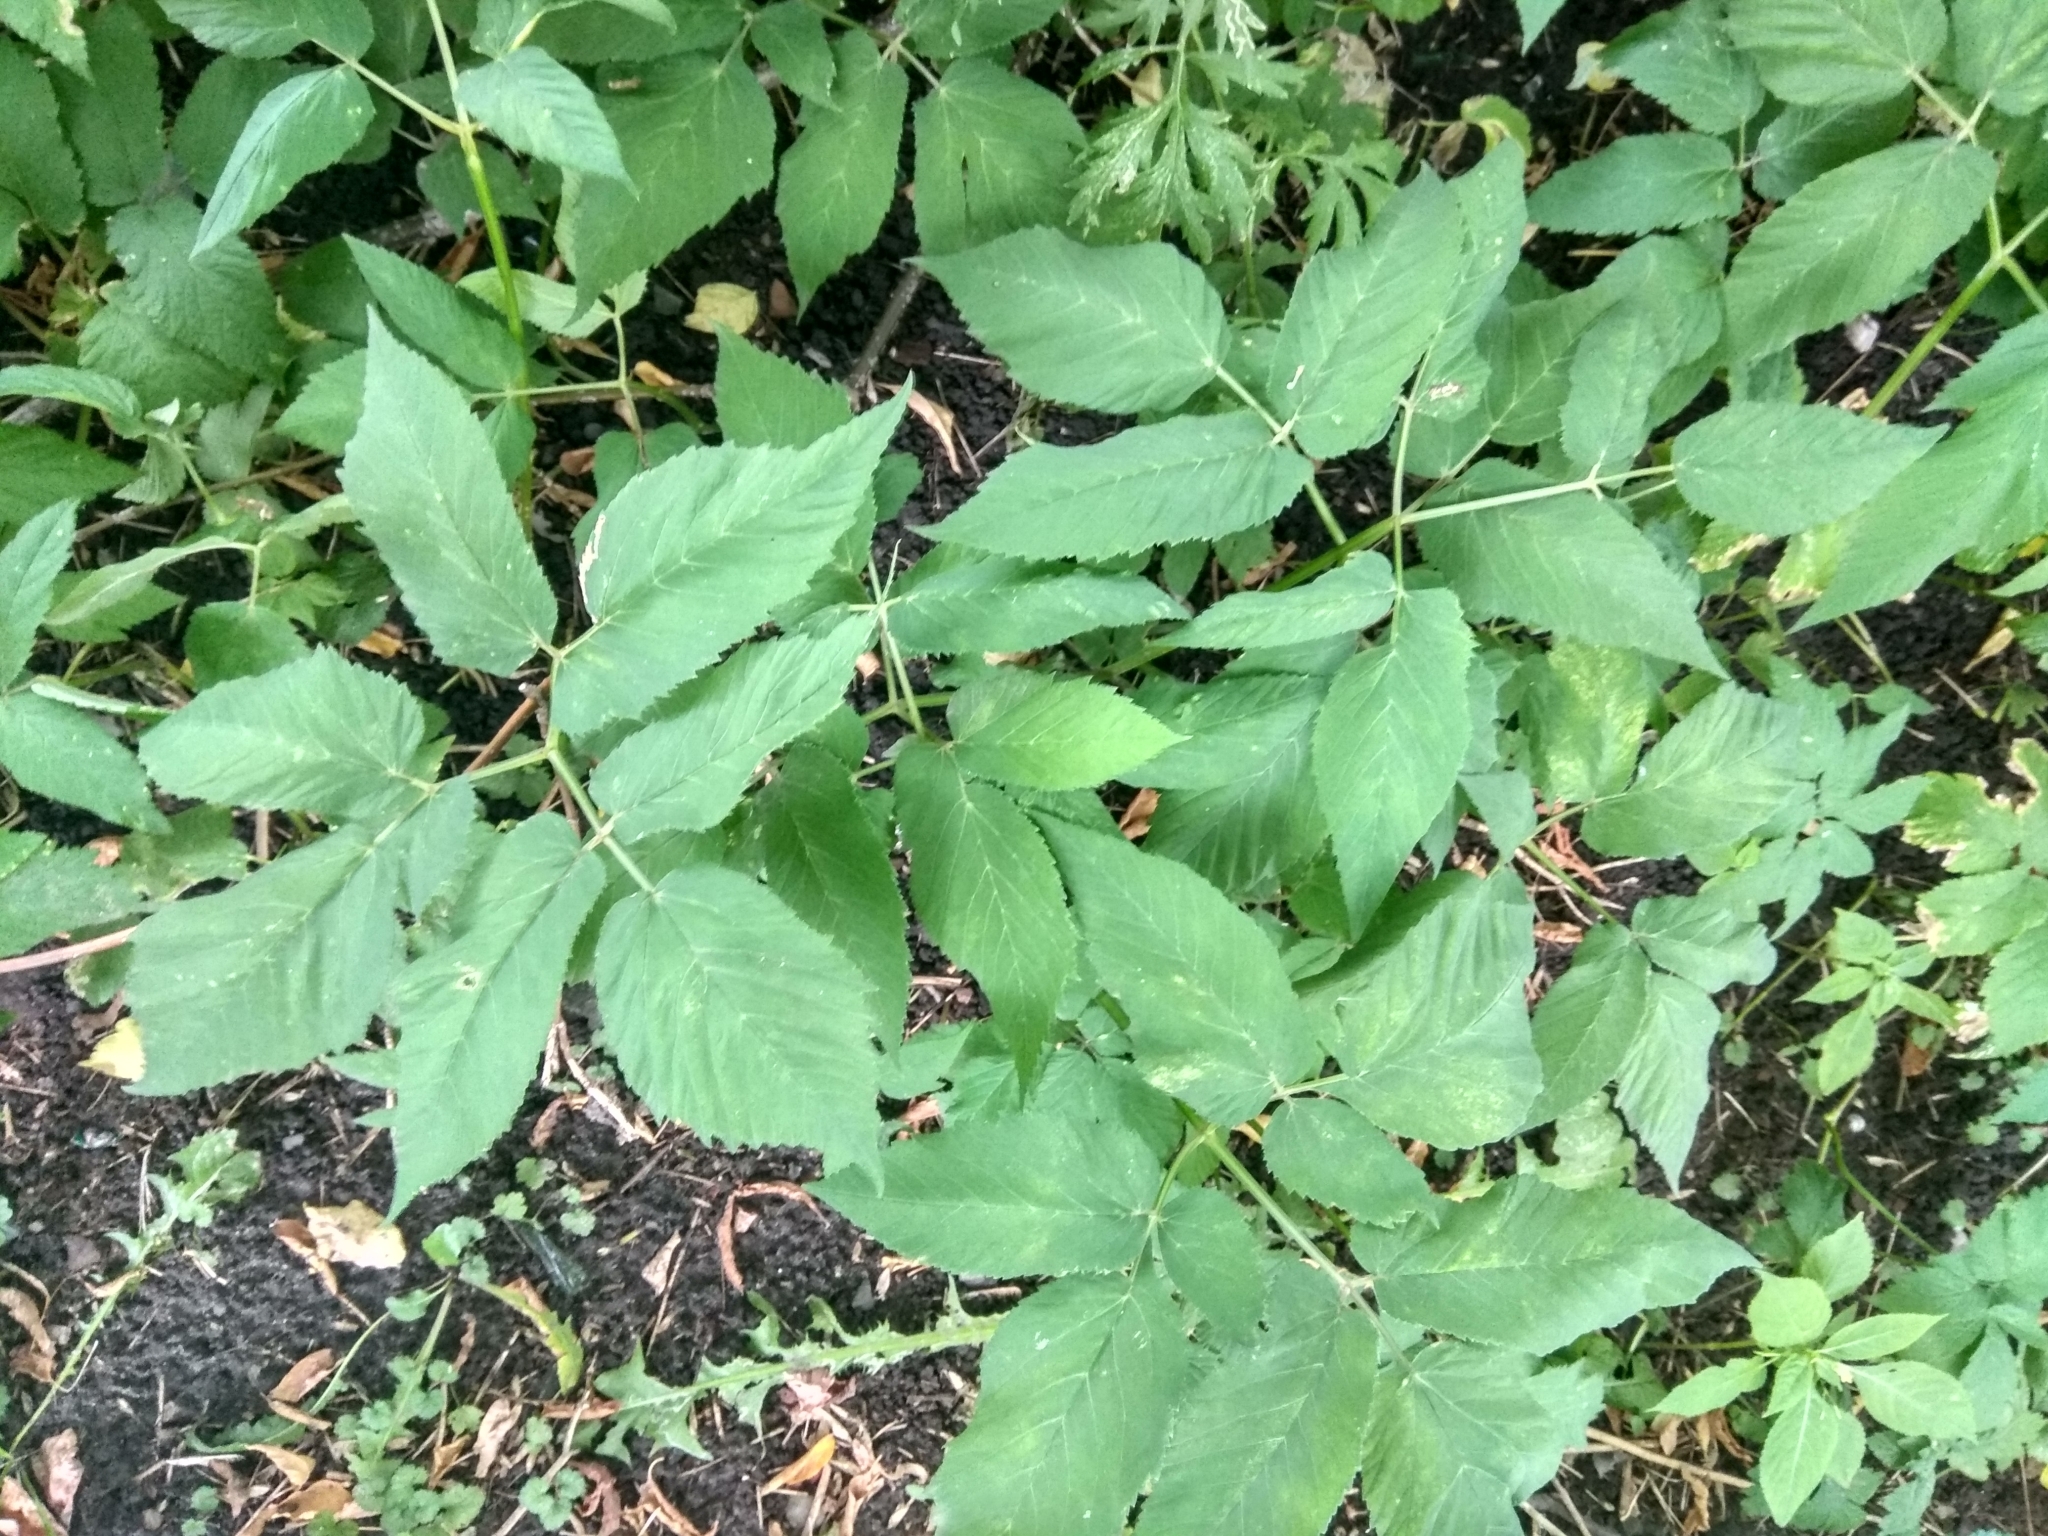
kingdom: Plantae
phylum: Tracheophyta
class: Magnoliopsida
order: Apiales
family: Apiaceae
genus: Aegopodium
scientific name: Aegopodium podagraria
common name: Ground-elder
